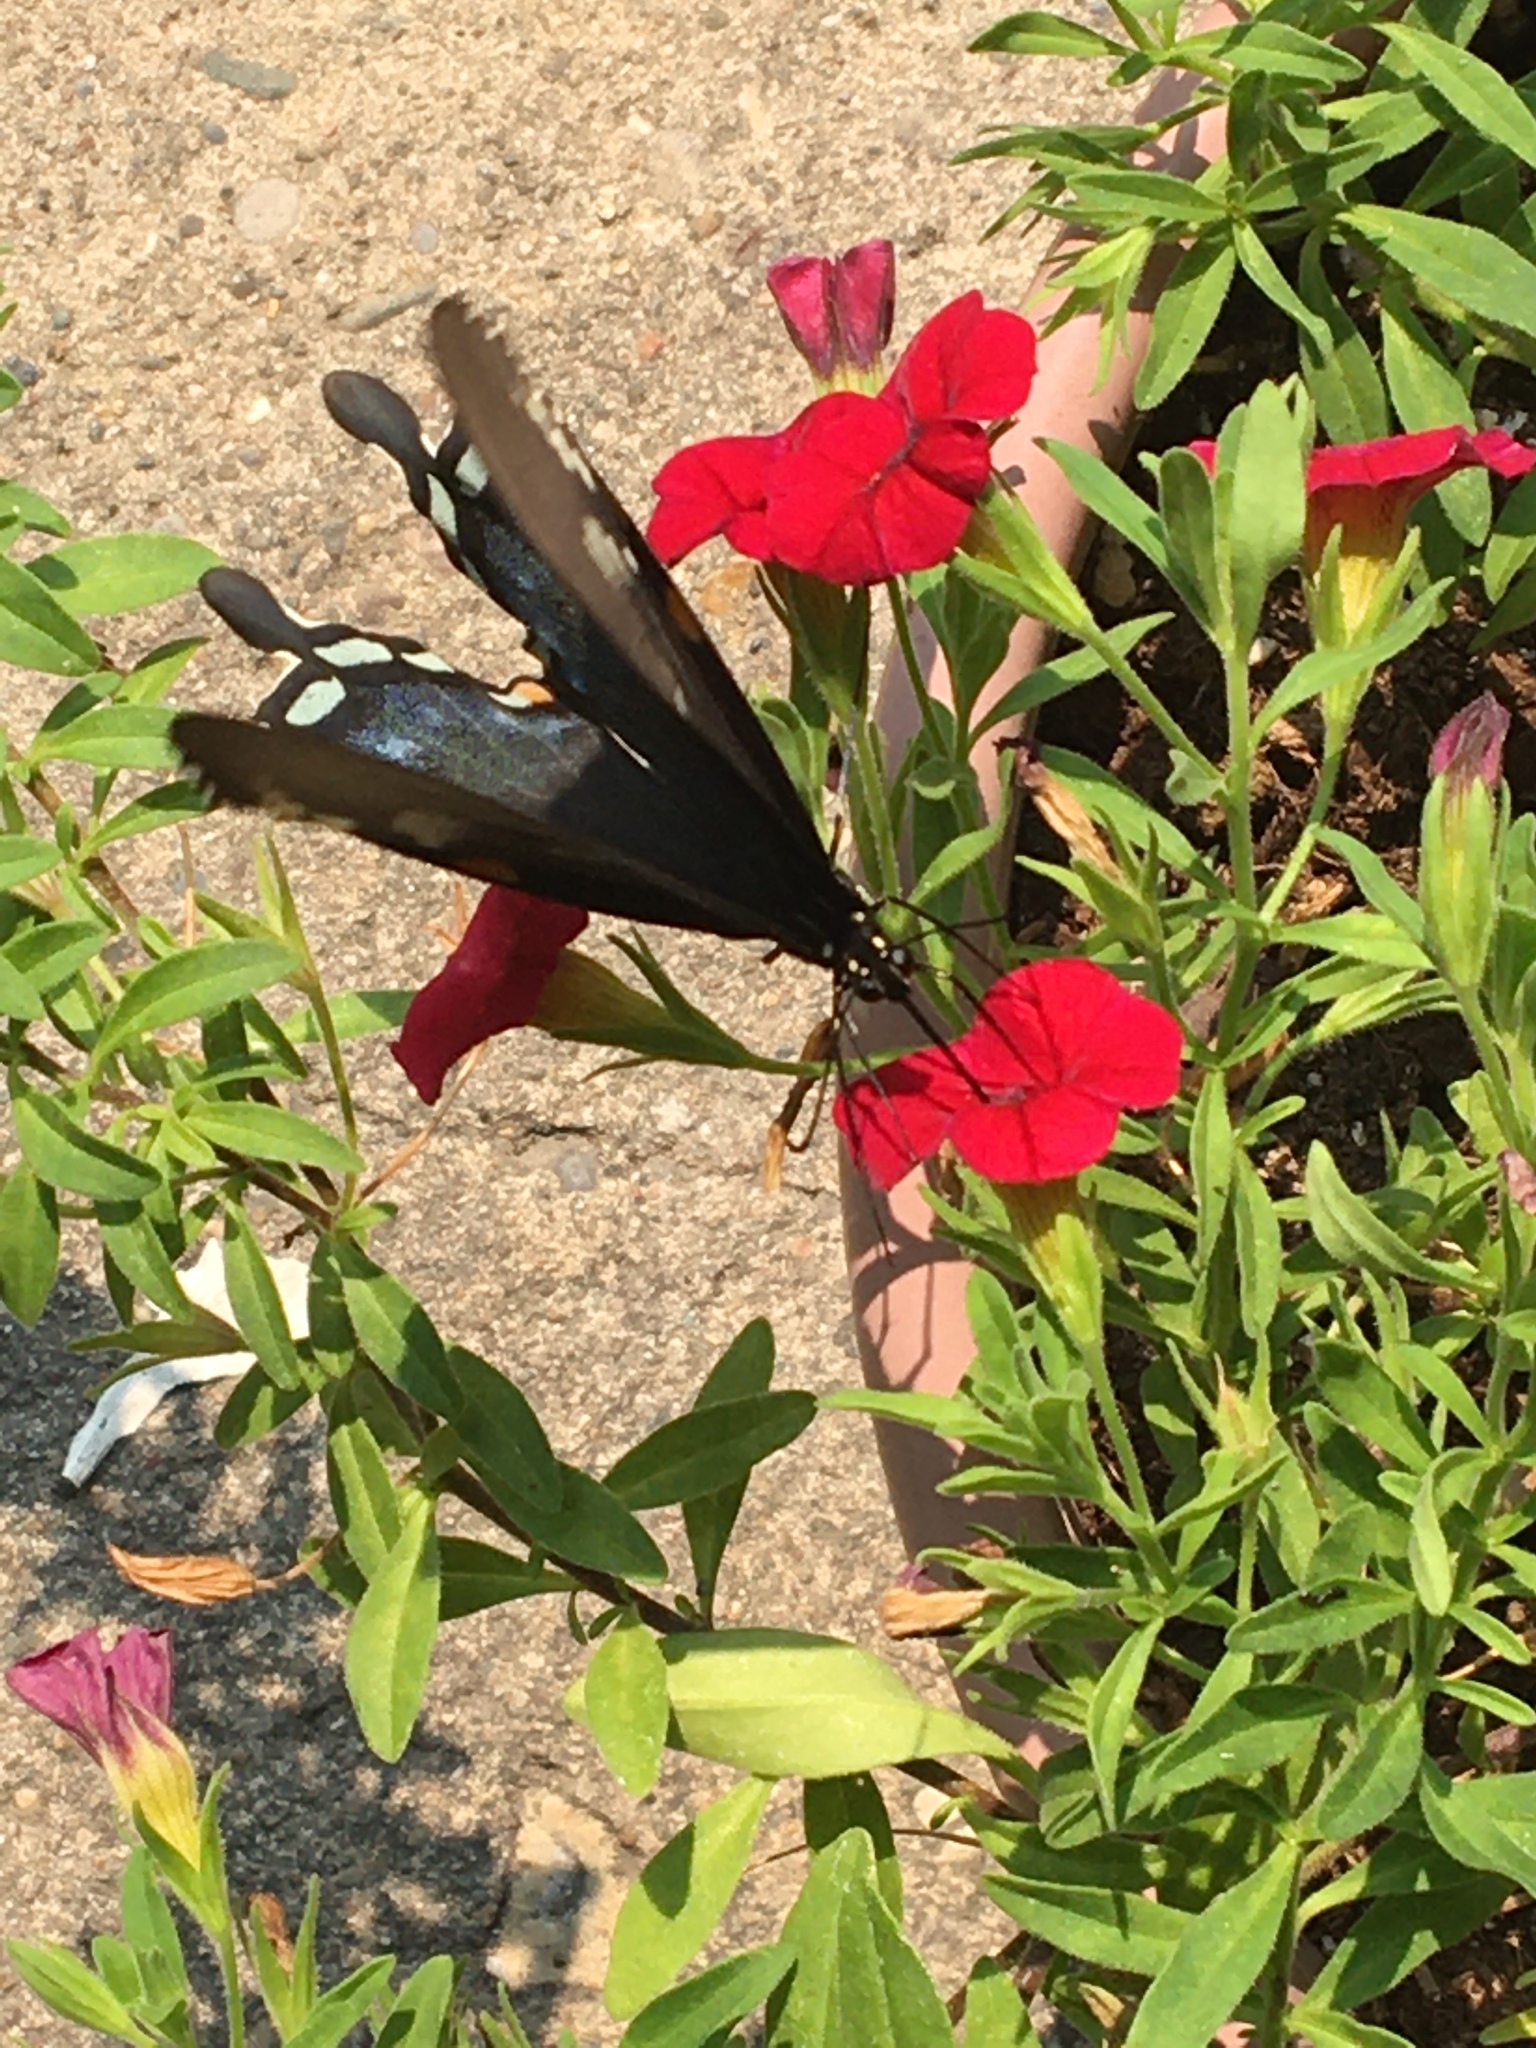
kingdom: Animalia
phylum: Arthropoda
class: Insecta
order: Lepidoptera
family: Papilionidae
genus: Papilio
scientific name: Papilio troilus
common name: Spicebush swallowtail
